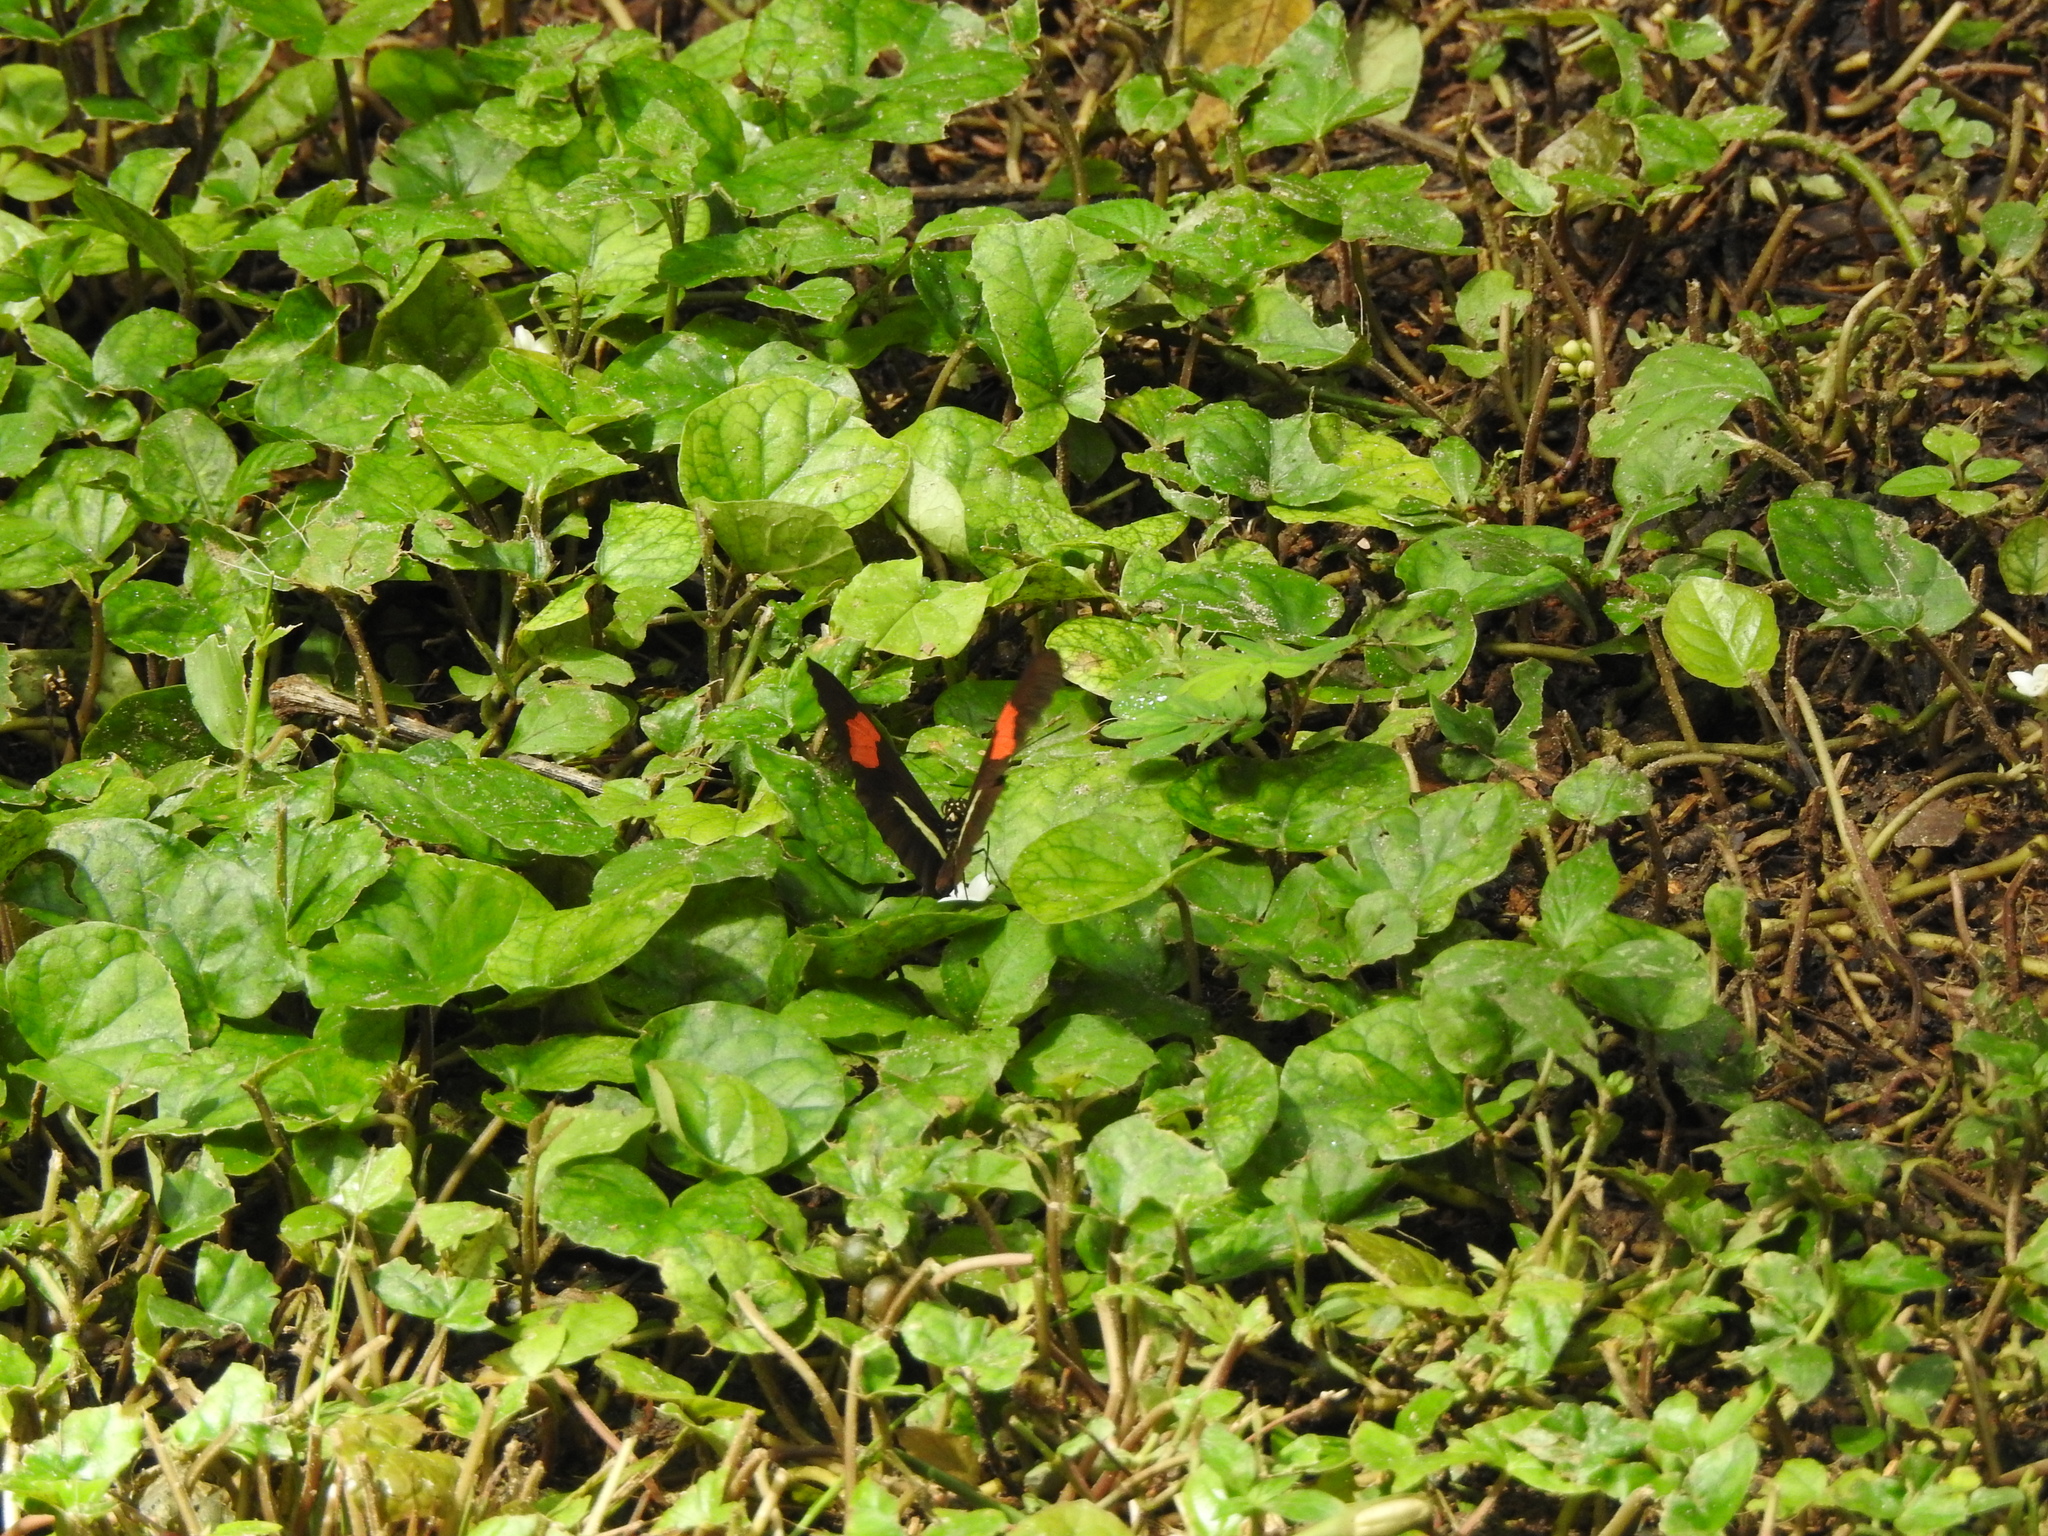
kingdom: Animalia
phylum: Arthropoda
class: Insecta
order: Lepidoptera
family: Nymphalidae
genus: Heliconius
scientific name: Heliconius erato
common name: Common patch longwing
